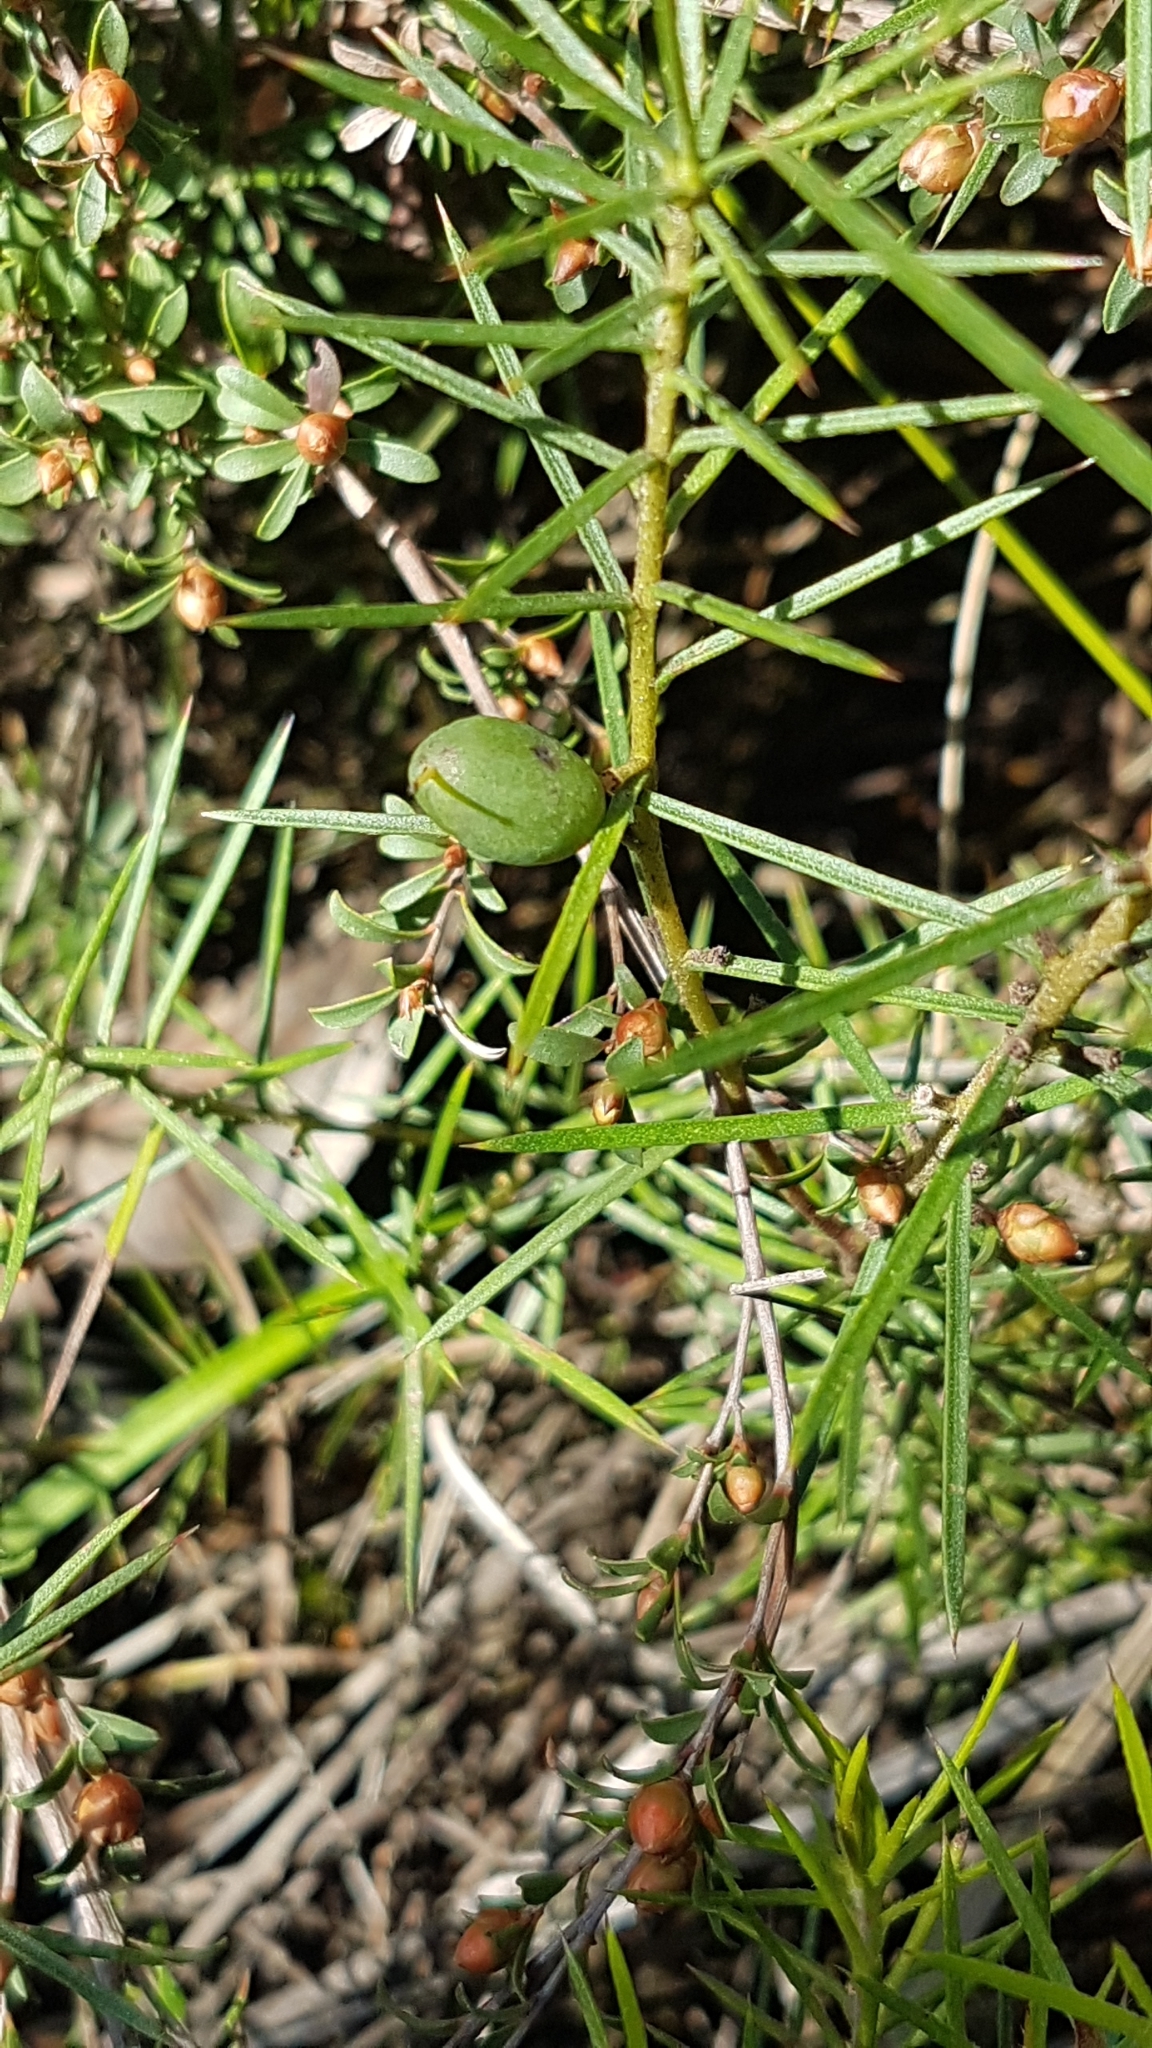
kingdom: Plantae
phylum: Tracheophyta
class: Magnoliopsida
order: Proteales
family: Proteaceae
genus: Persoonia
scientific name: Persoonia juniperina
